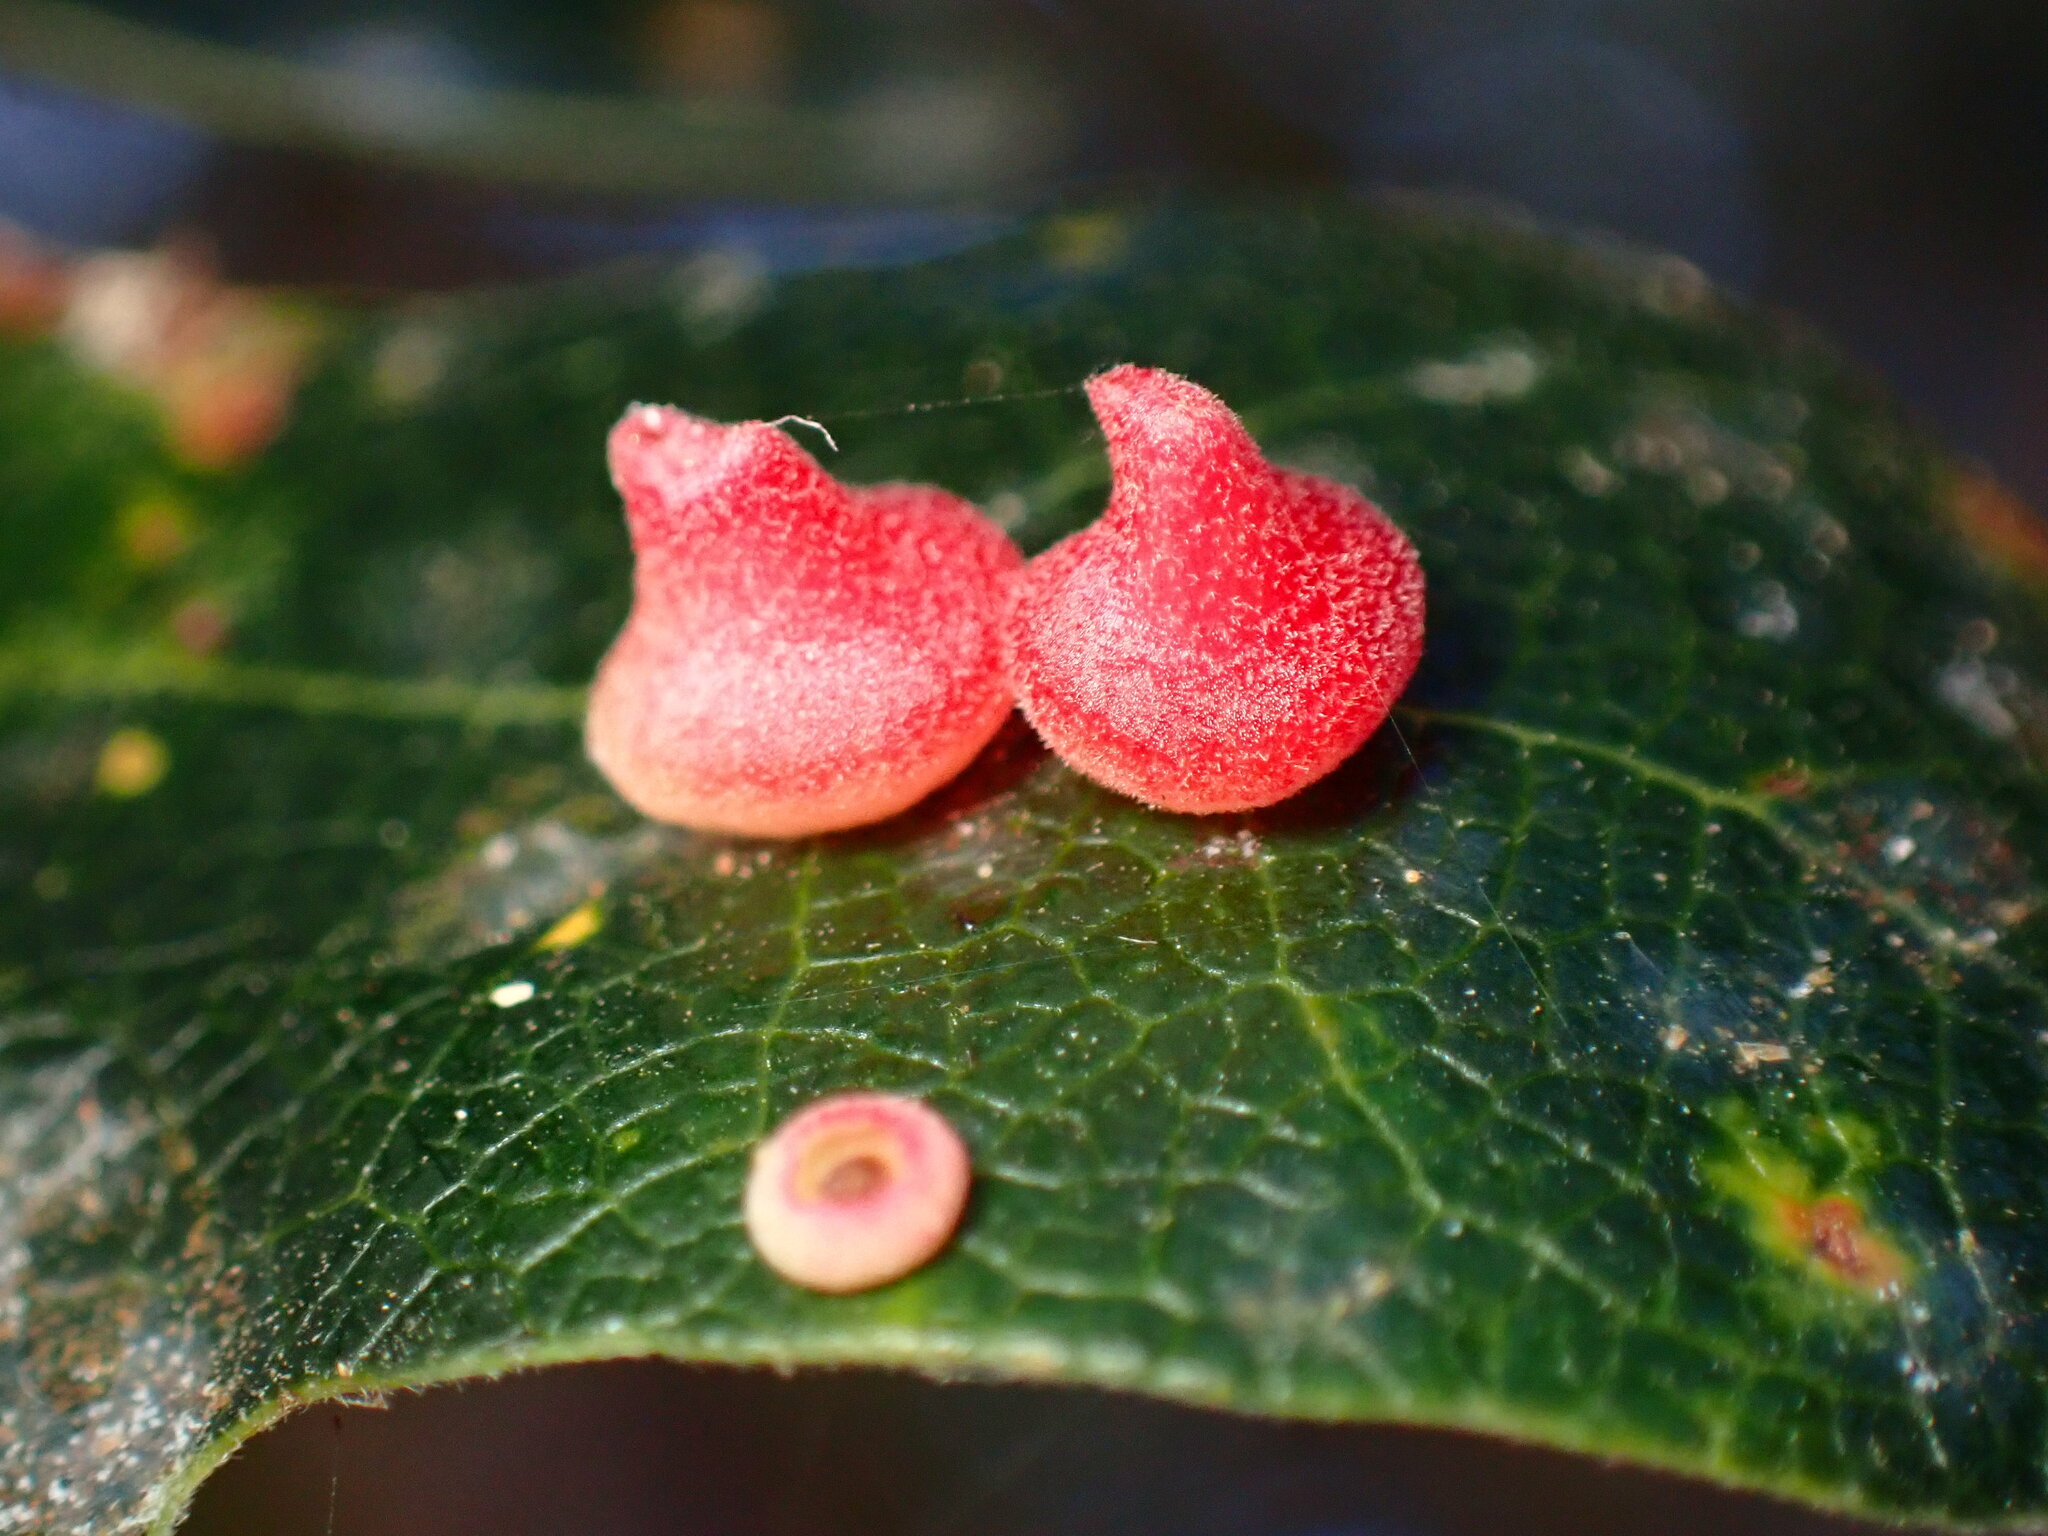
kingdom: Animalia
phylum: Arthropoda
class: Insecta
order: Hymenoptera
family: Cynipidae
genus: Andricus
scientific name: Andricus
